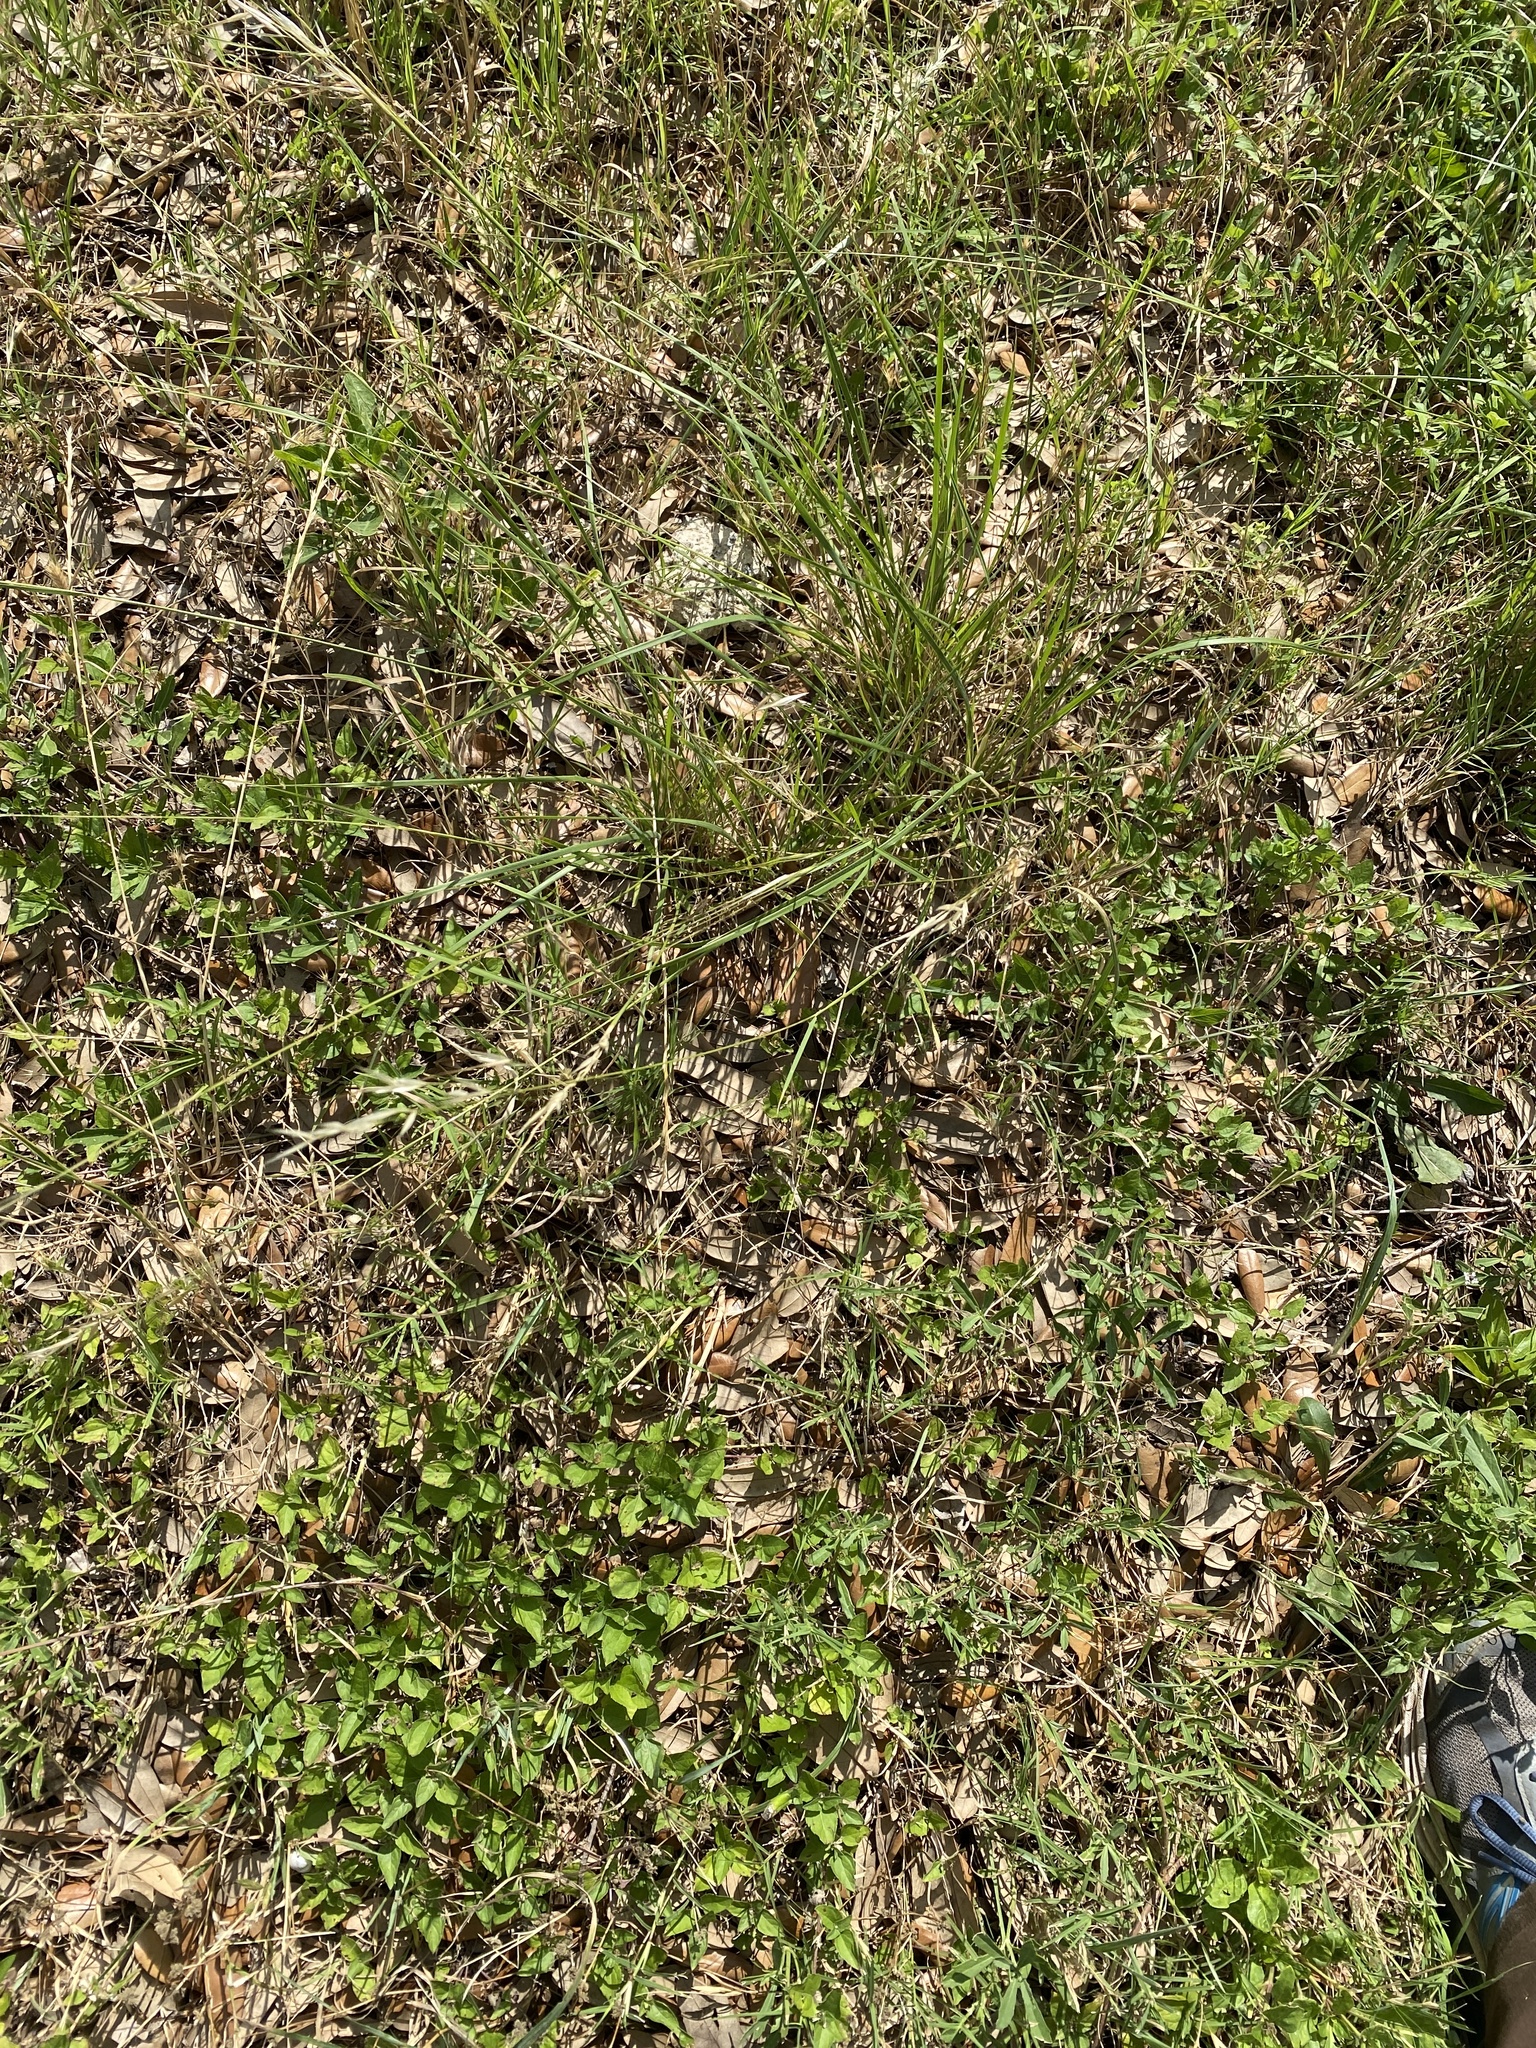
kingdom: Plantae
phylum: Tracheophyta
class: Liliopsida
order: Poales
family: Poaceae
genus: Nassella
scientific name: Nassella leucotricha
